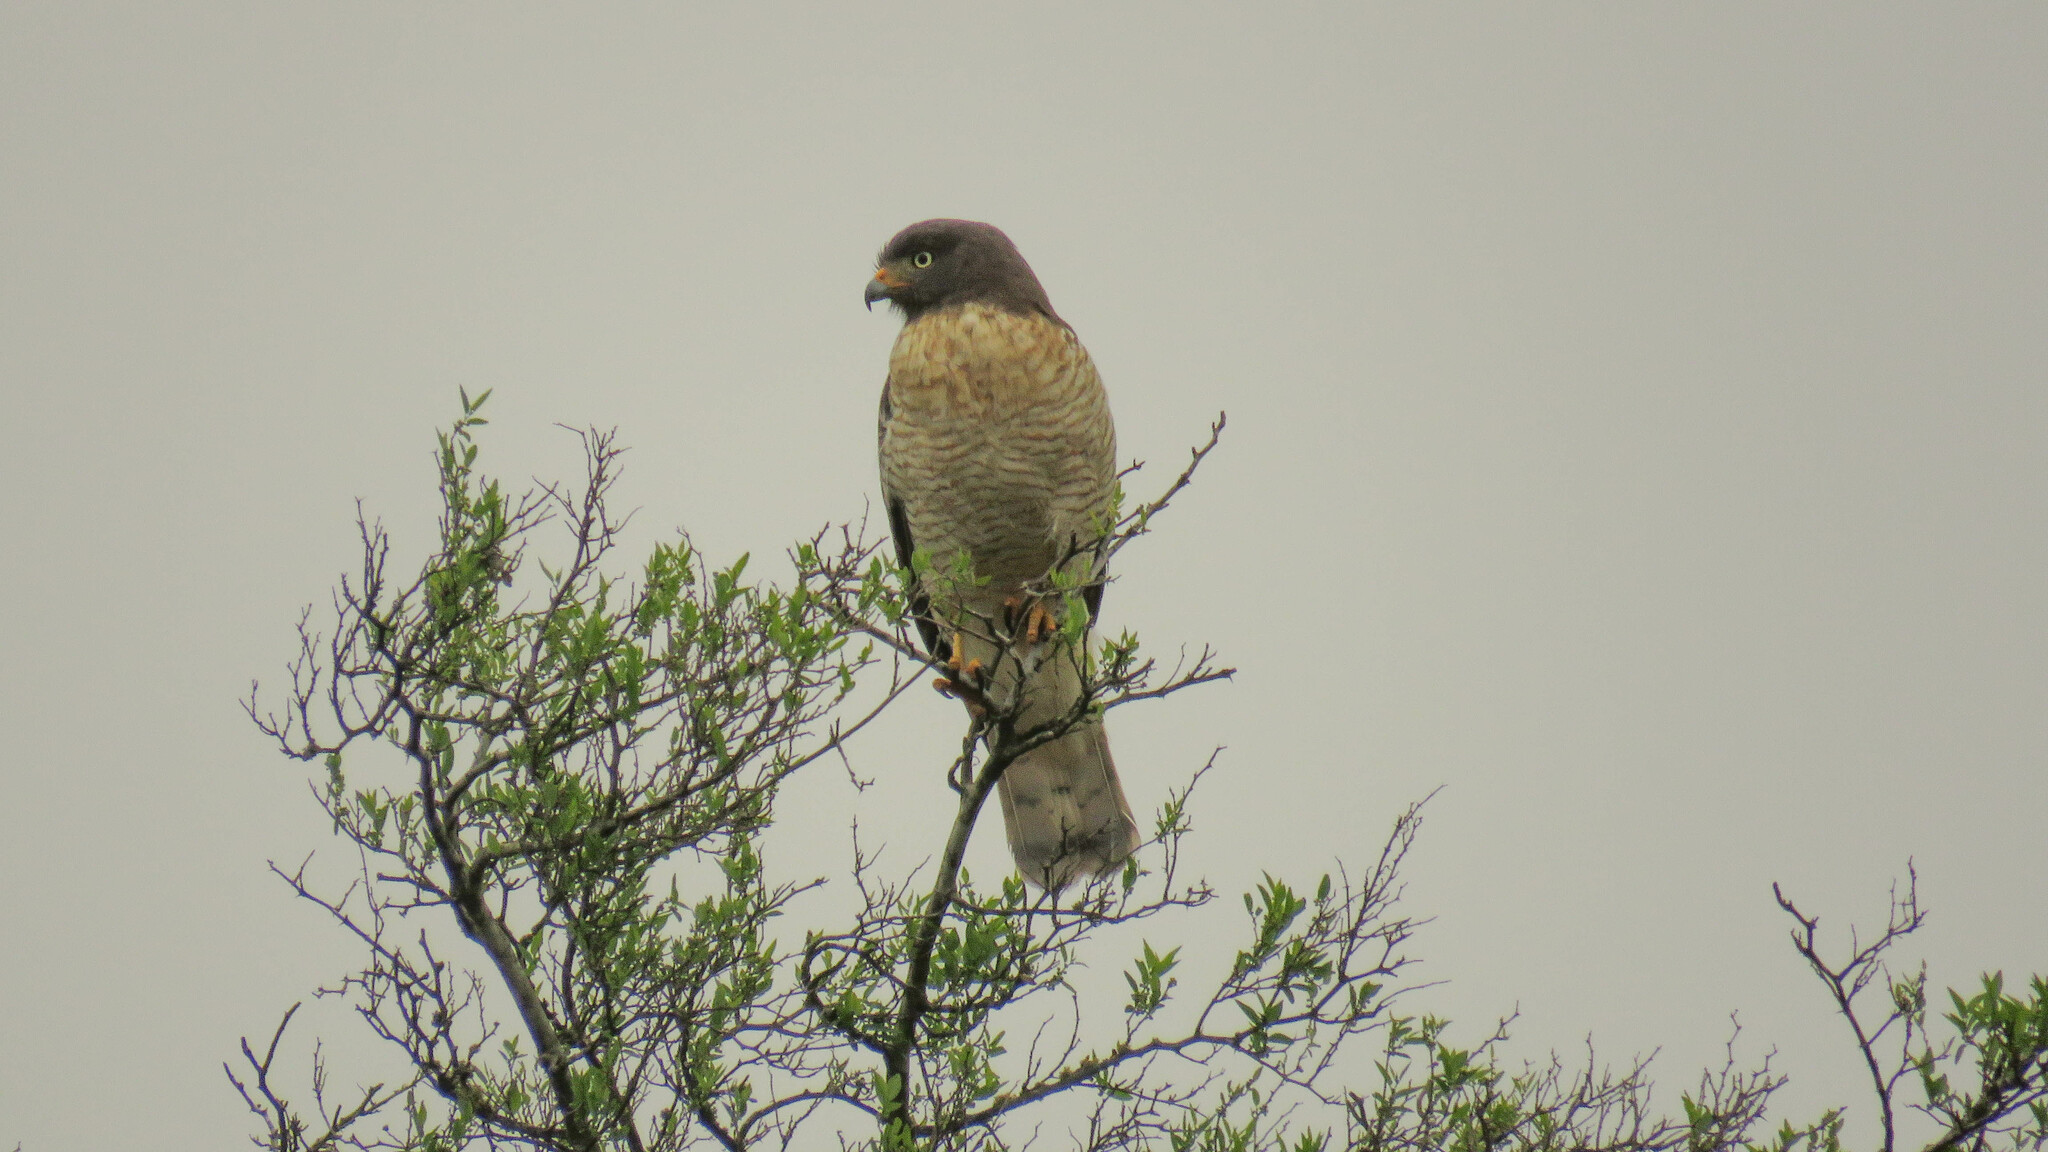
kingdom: Animalia
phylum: Chordata
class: Aves
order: Accipitriformes
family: Accipitridae
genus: Rupornis
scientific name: Rupornis magnirostris
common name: Roadside hawk
